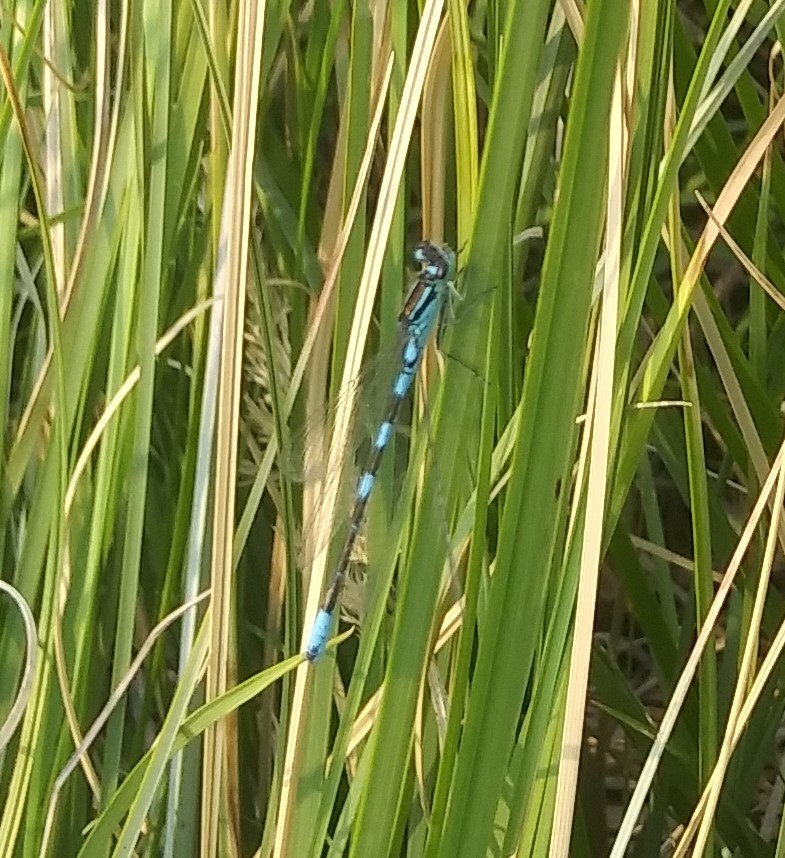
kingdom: Animalia
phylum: Arthropoda
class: Insecta
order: Odonata
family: Coenagrionidae
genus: Coenagrion
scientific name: Coenagrion resolutum
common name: Taiga bluet
